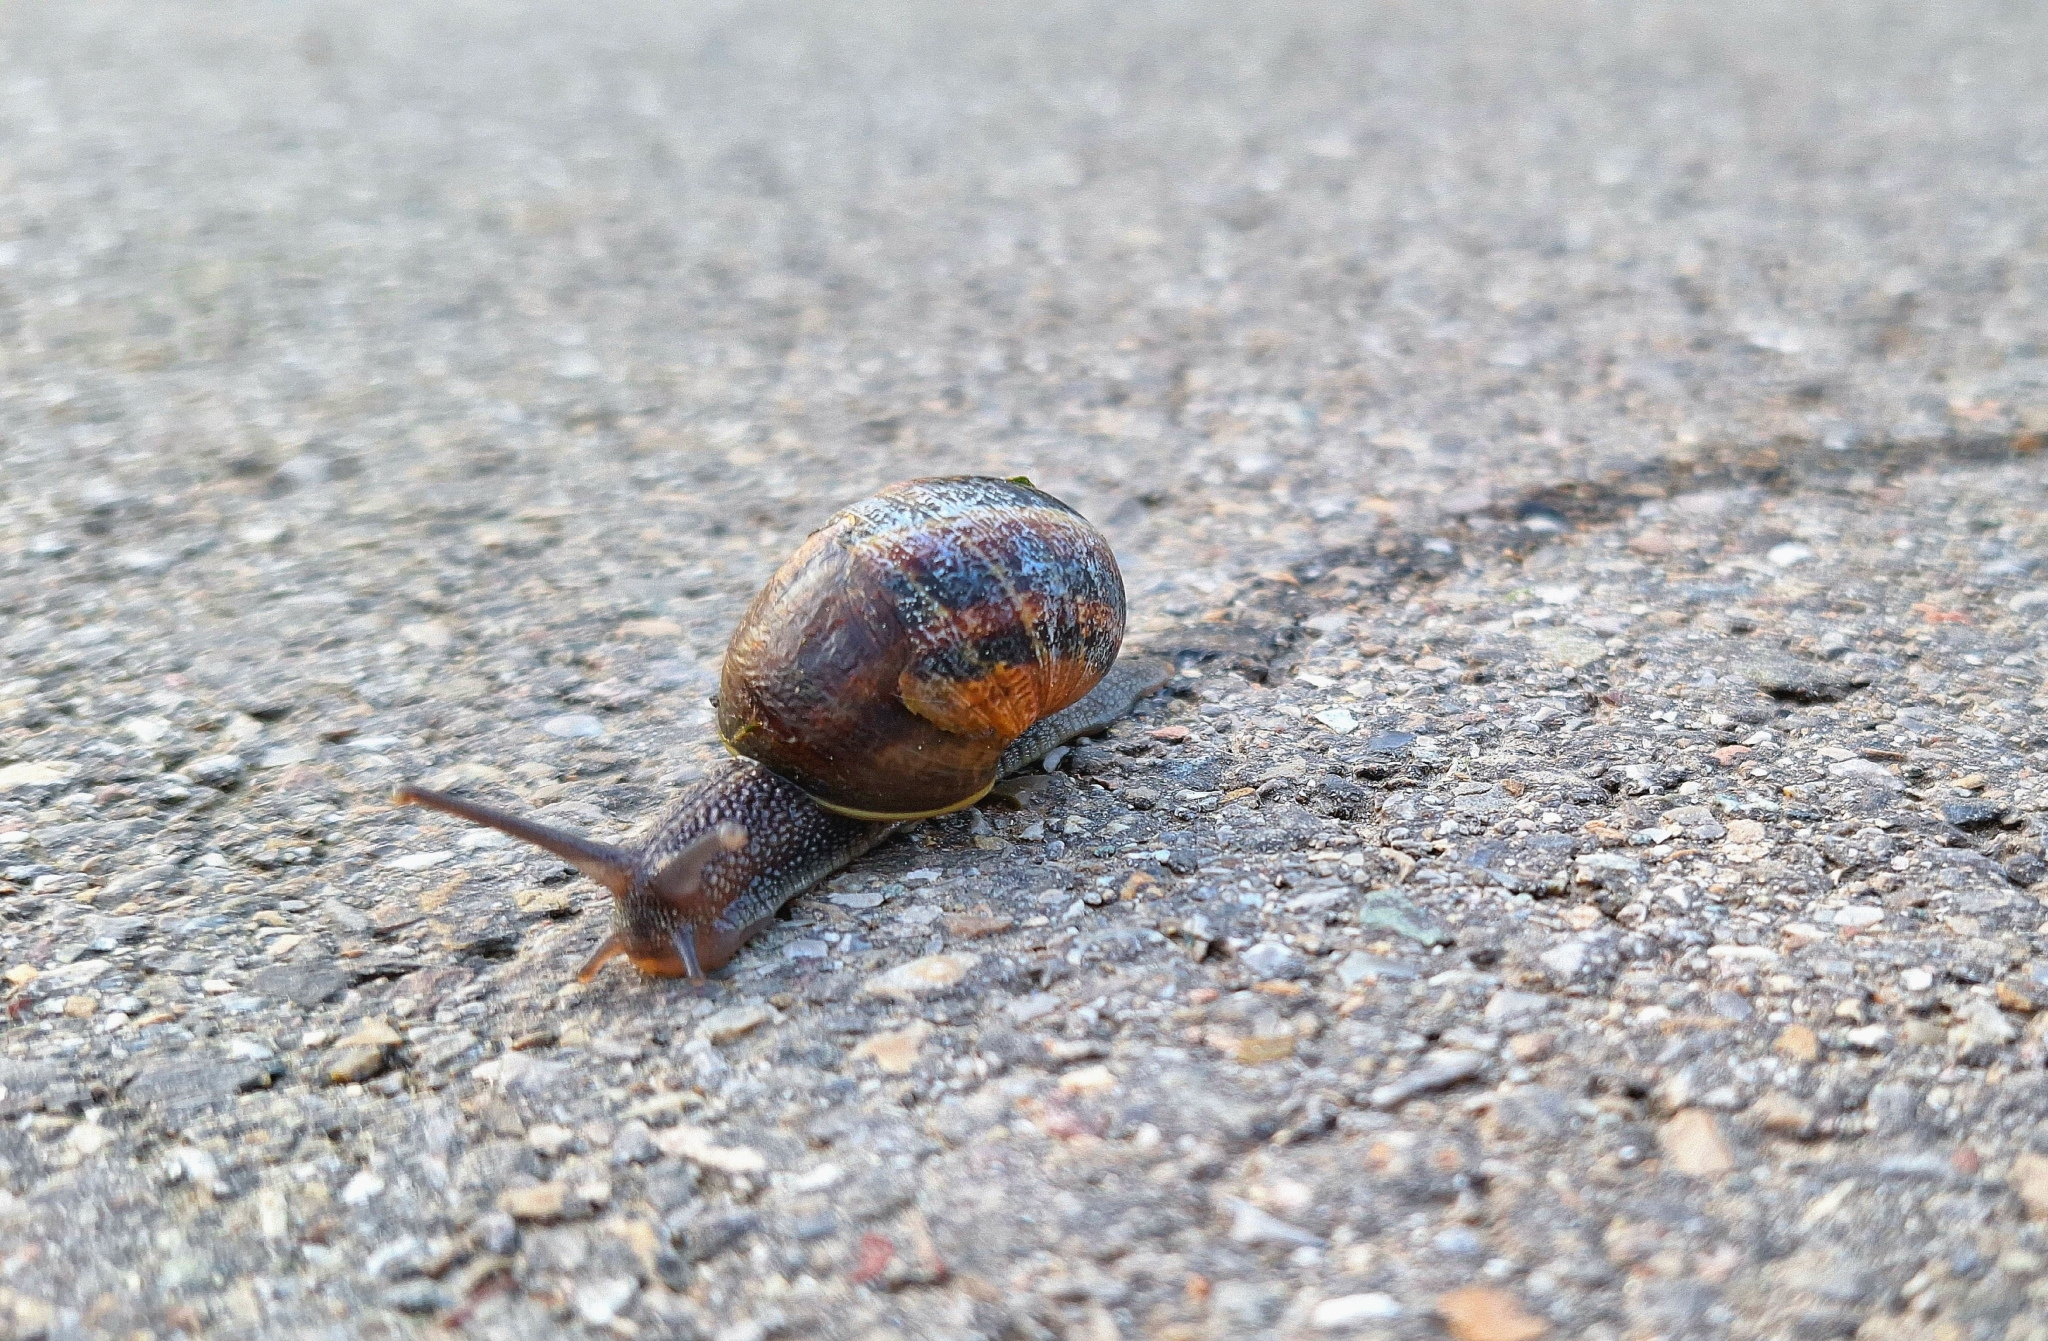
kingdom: Animalia
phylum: Mollusca
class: Gastropoda
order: Stylommatophora
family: Helicidae
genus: Cornu
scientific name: Cornu aspersum
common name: Brown garden snail
